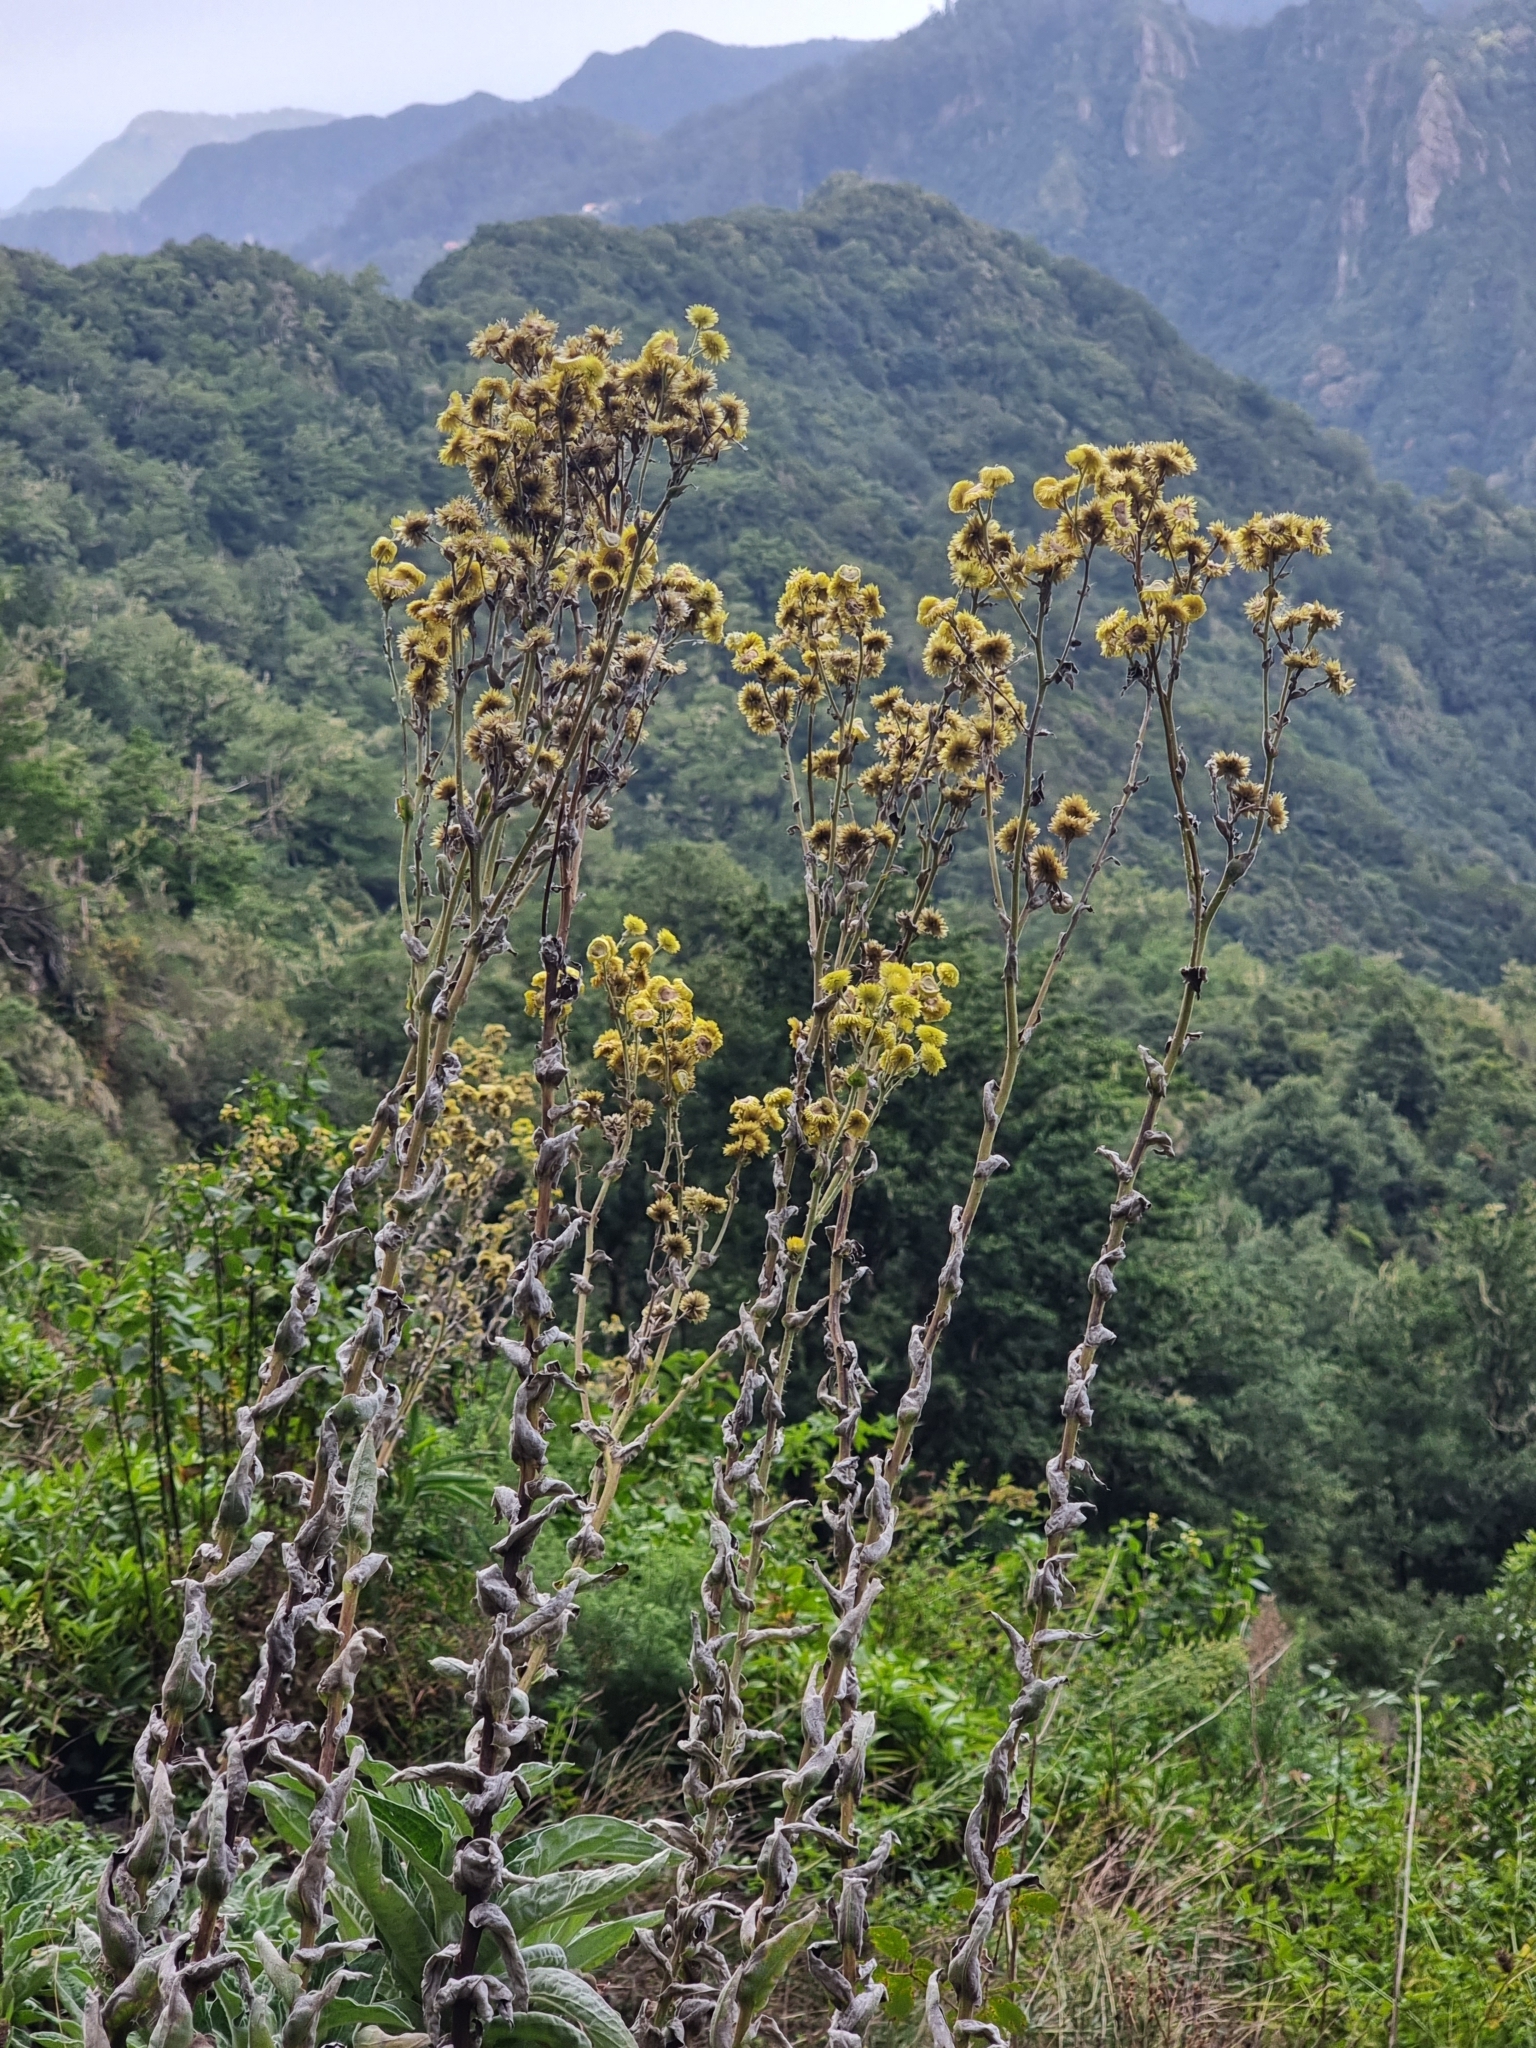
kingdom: Plantae
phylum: Tracheophyta
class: Magnoliopsida
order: Asterales
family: Asteraceae
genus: Helichrysum
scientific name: Helichrysum foetidum
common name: Stinking everlasting
